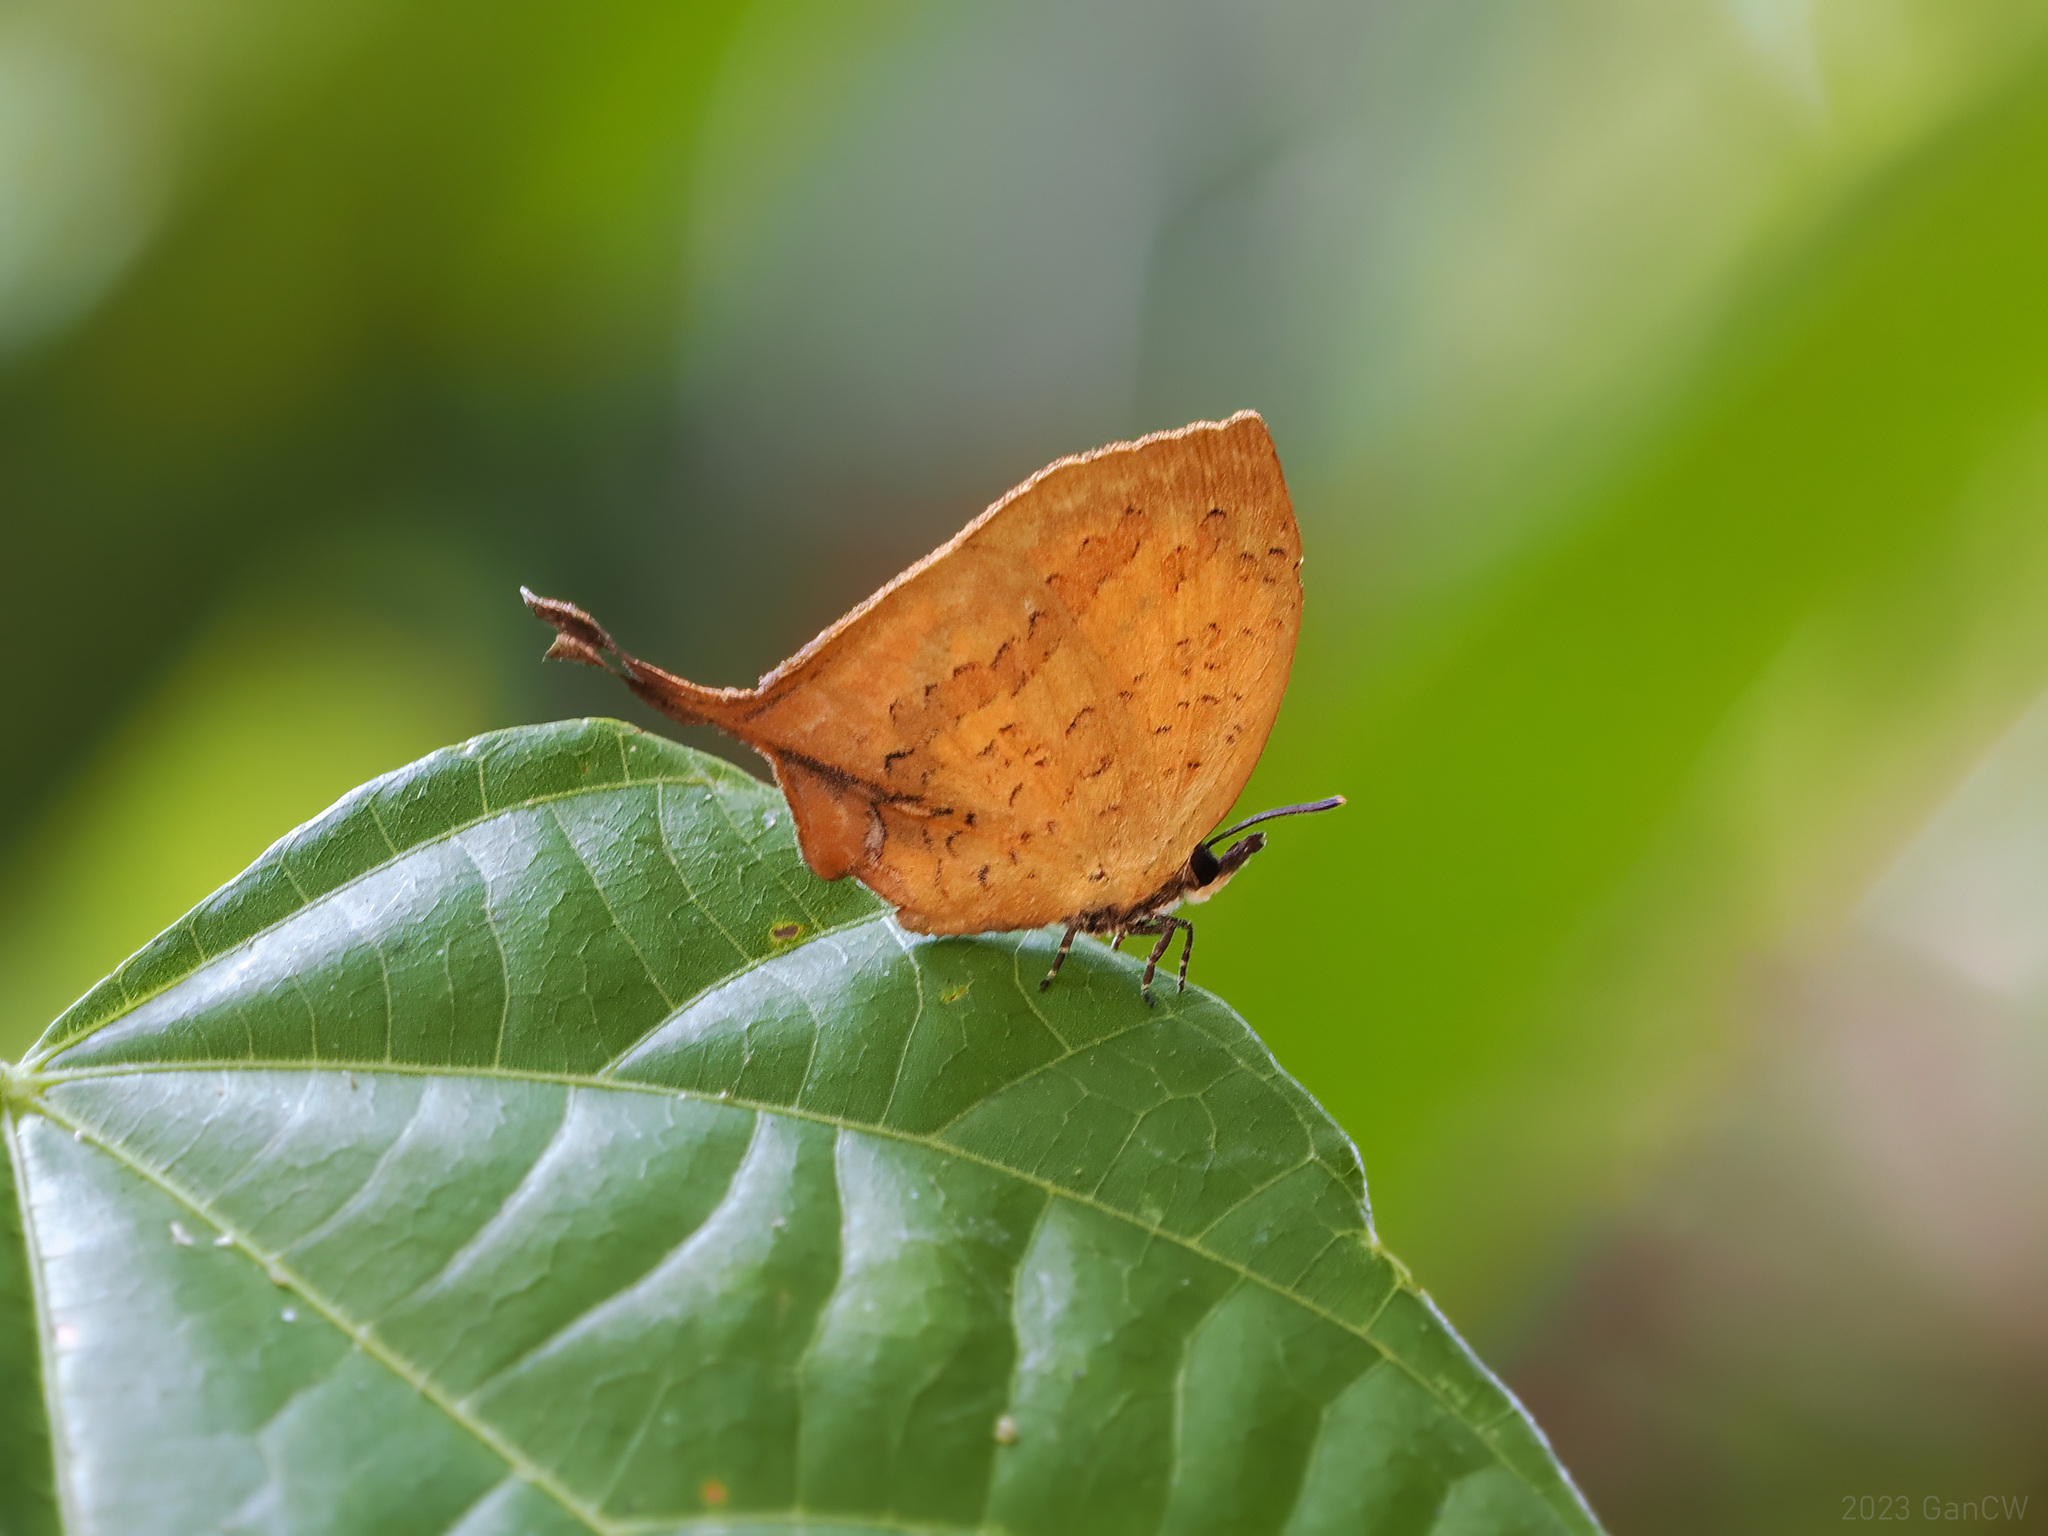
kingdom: Animalia
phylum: Arthropoda
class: Insecta
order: Lepidoptera
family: Lycaenidae
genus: Yasoda
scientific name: Yasoda tripunctata
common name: Branded yamfly
